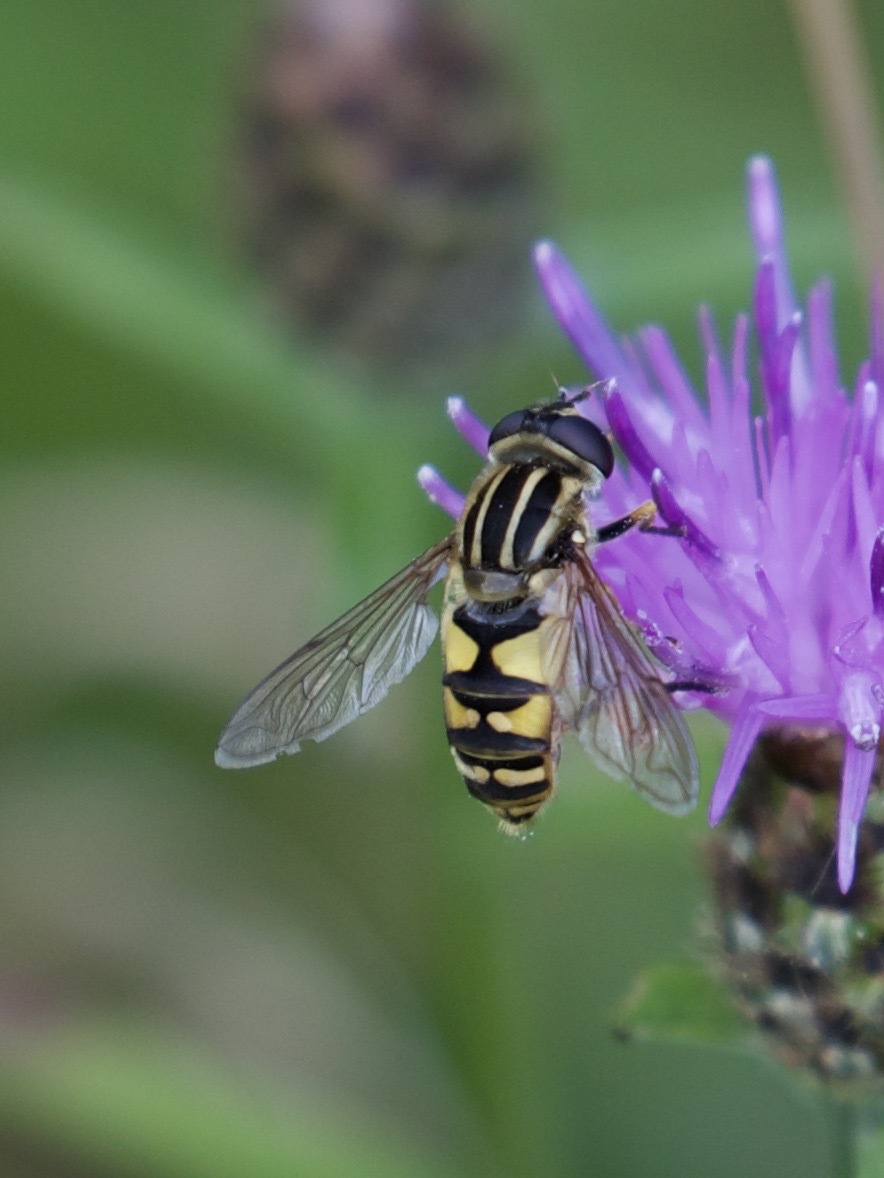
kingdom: Animalia
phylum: Arthropoda
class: Insecta
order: Diptera
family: Syrphidae
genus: Helophilus
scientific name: Helophilus pendulus
